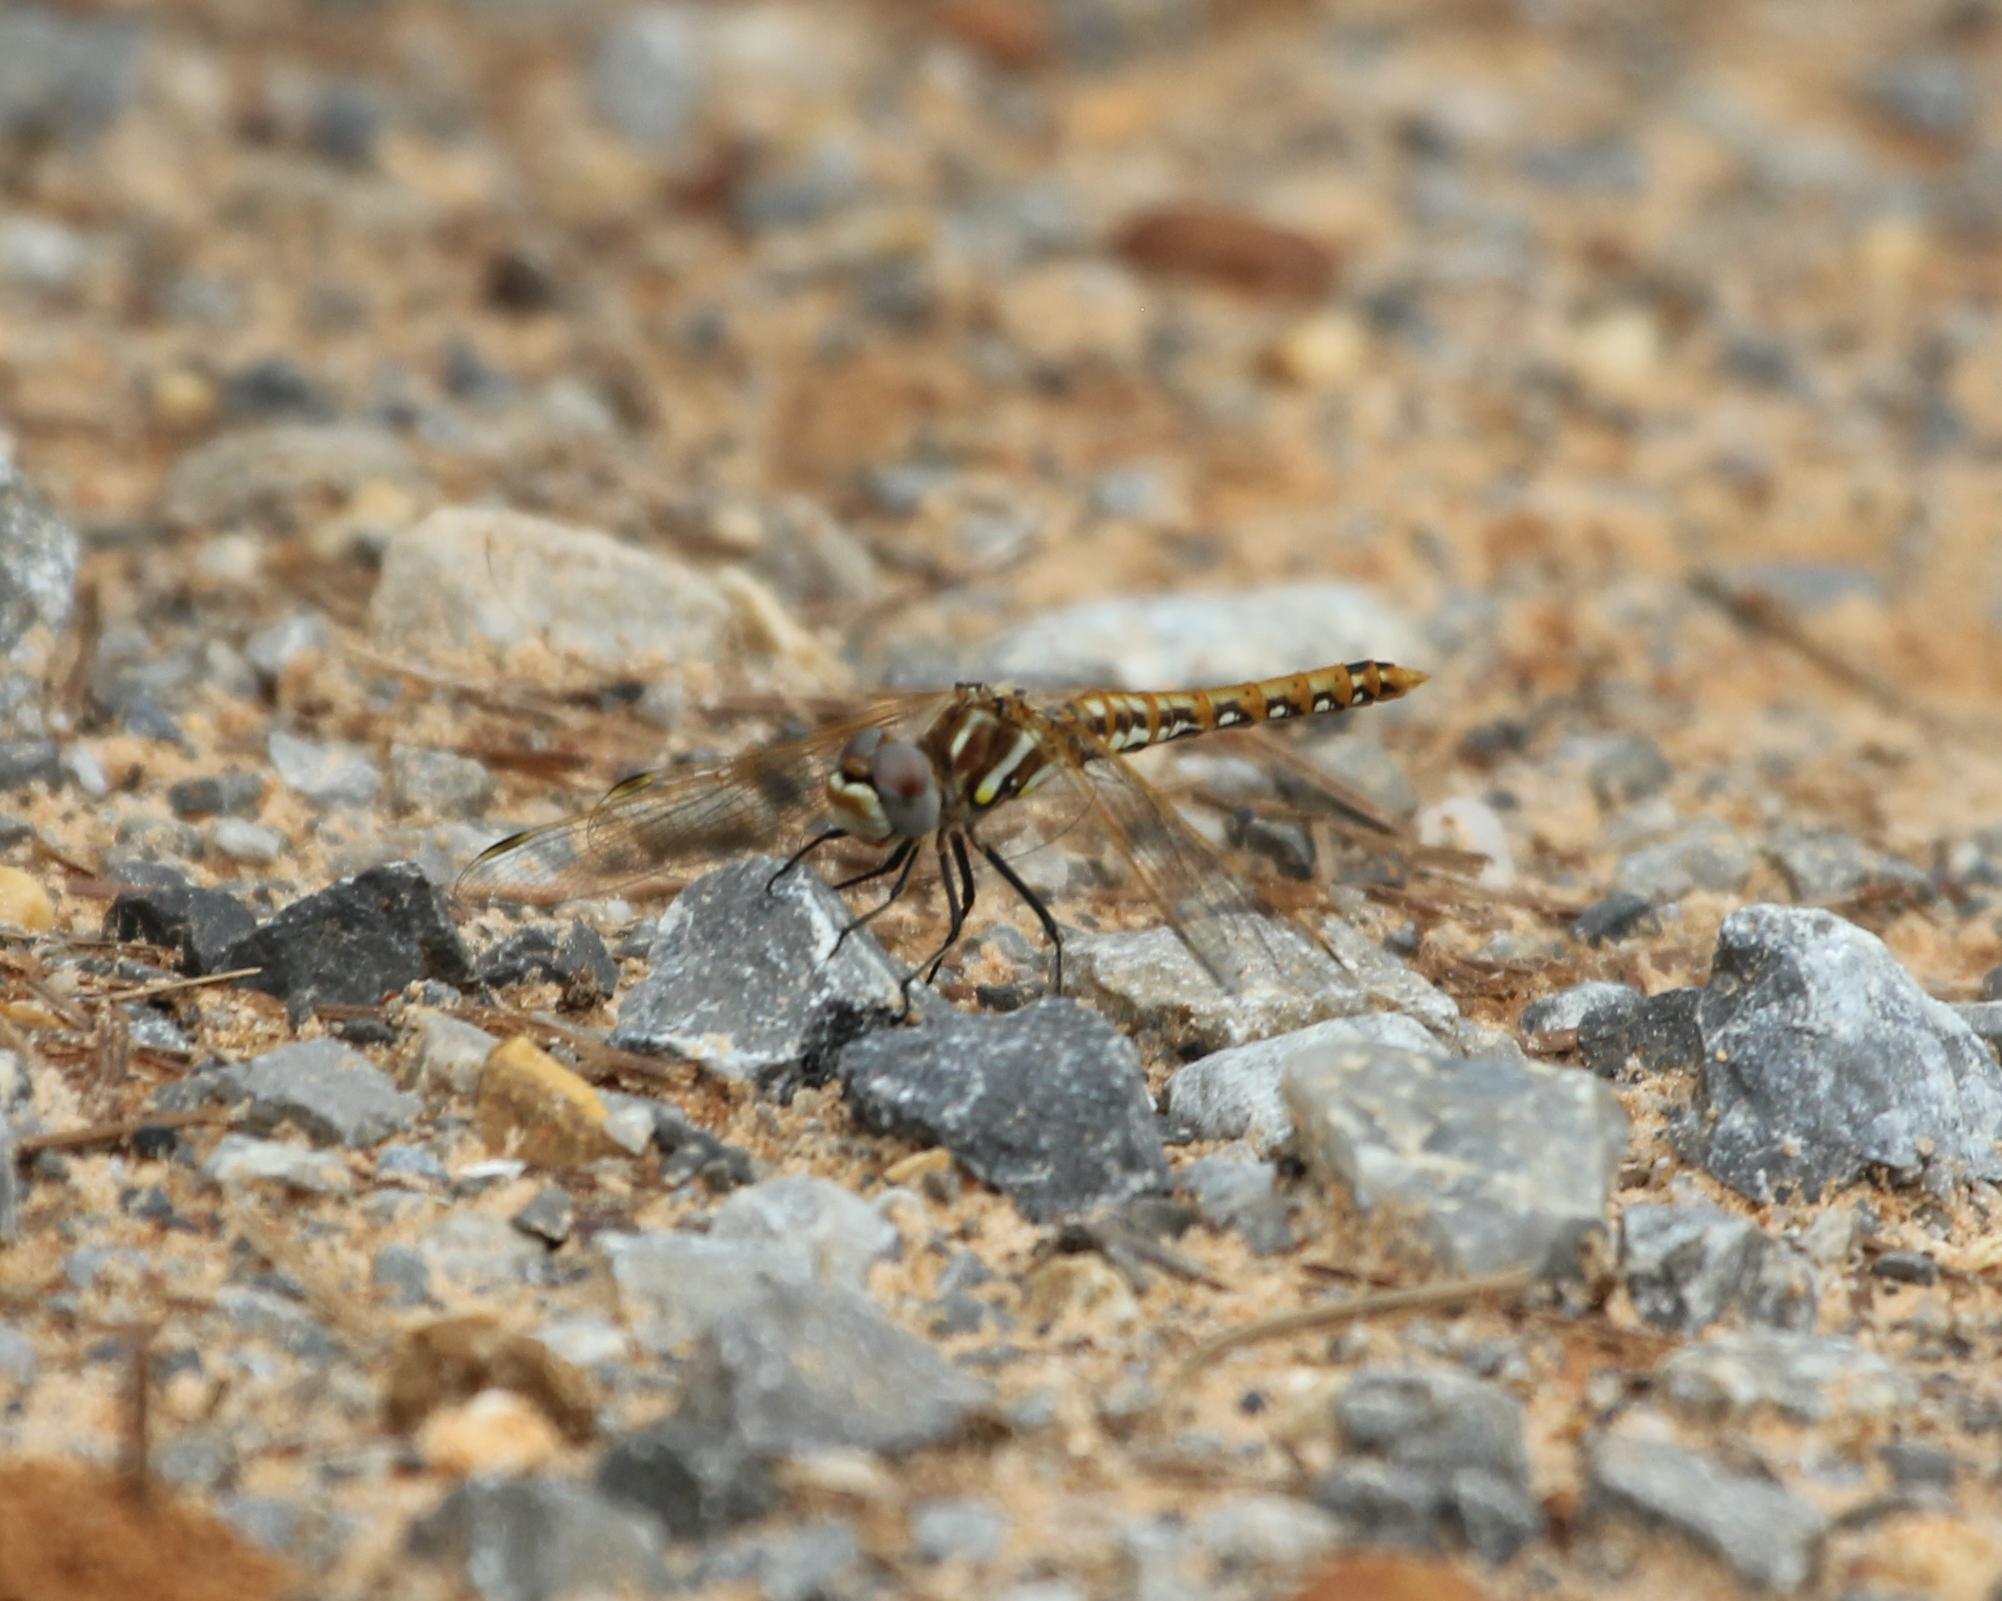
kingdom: Animalia
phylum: Arthropoda
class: Insecta
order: Odonata
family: Libellulidae
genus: Sympetrum
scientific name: Sympetrum corruptum
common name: Variegated meadowhawk
